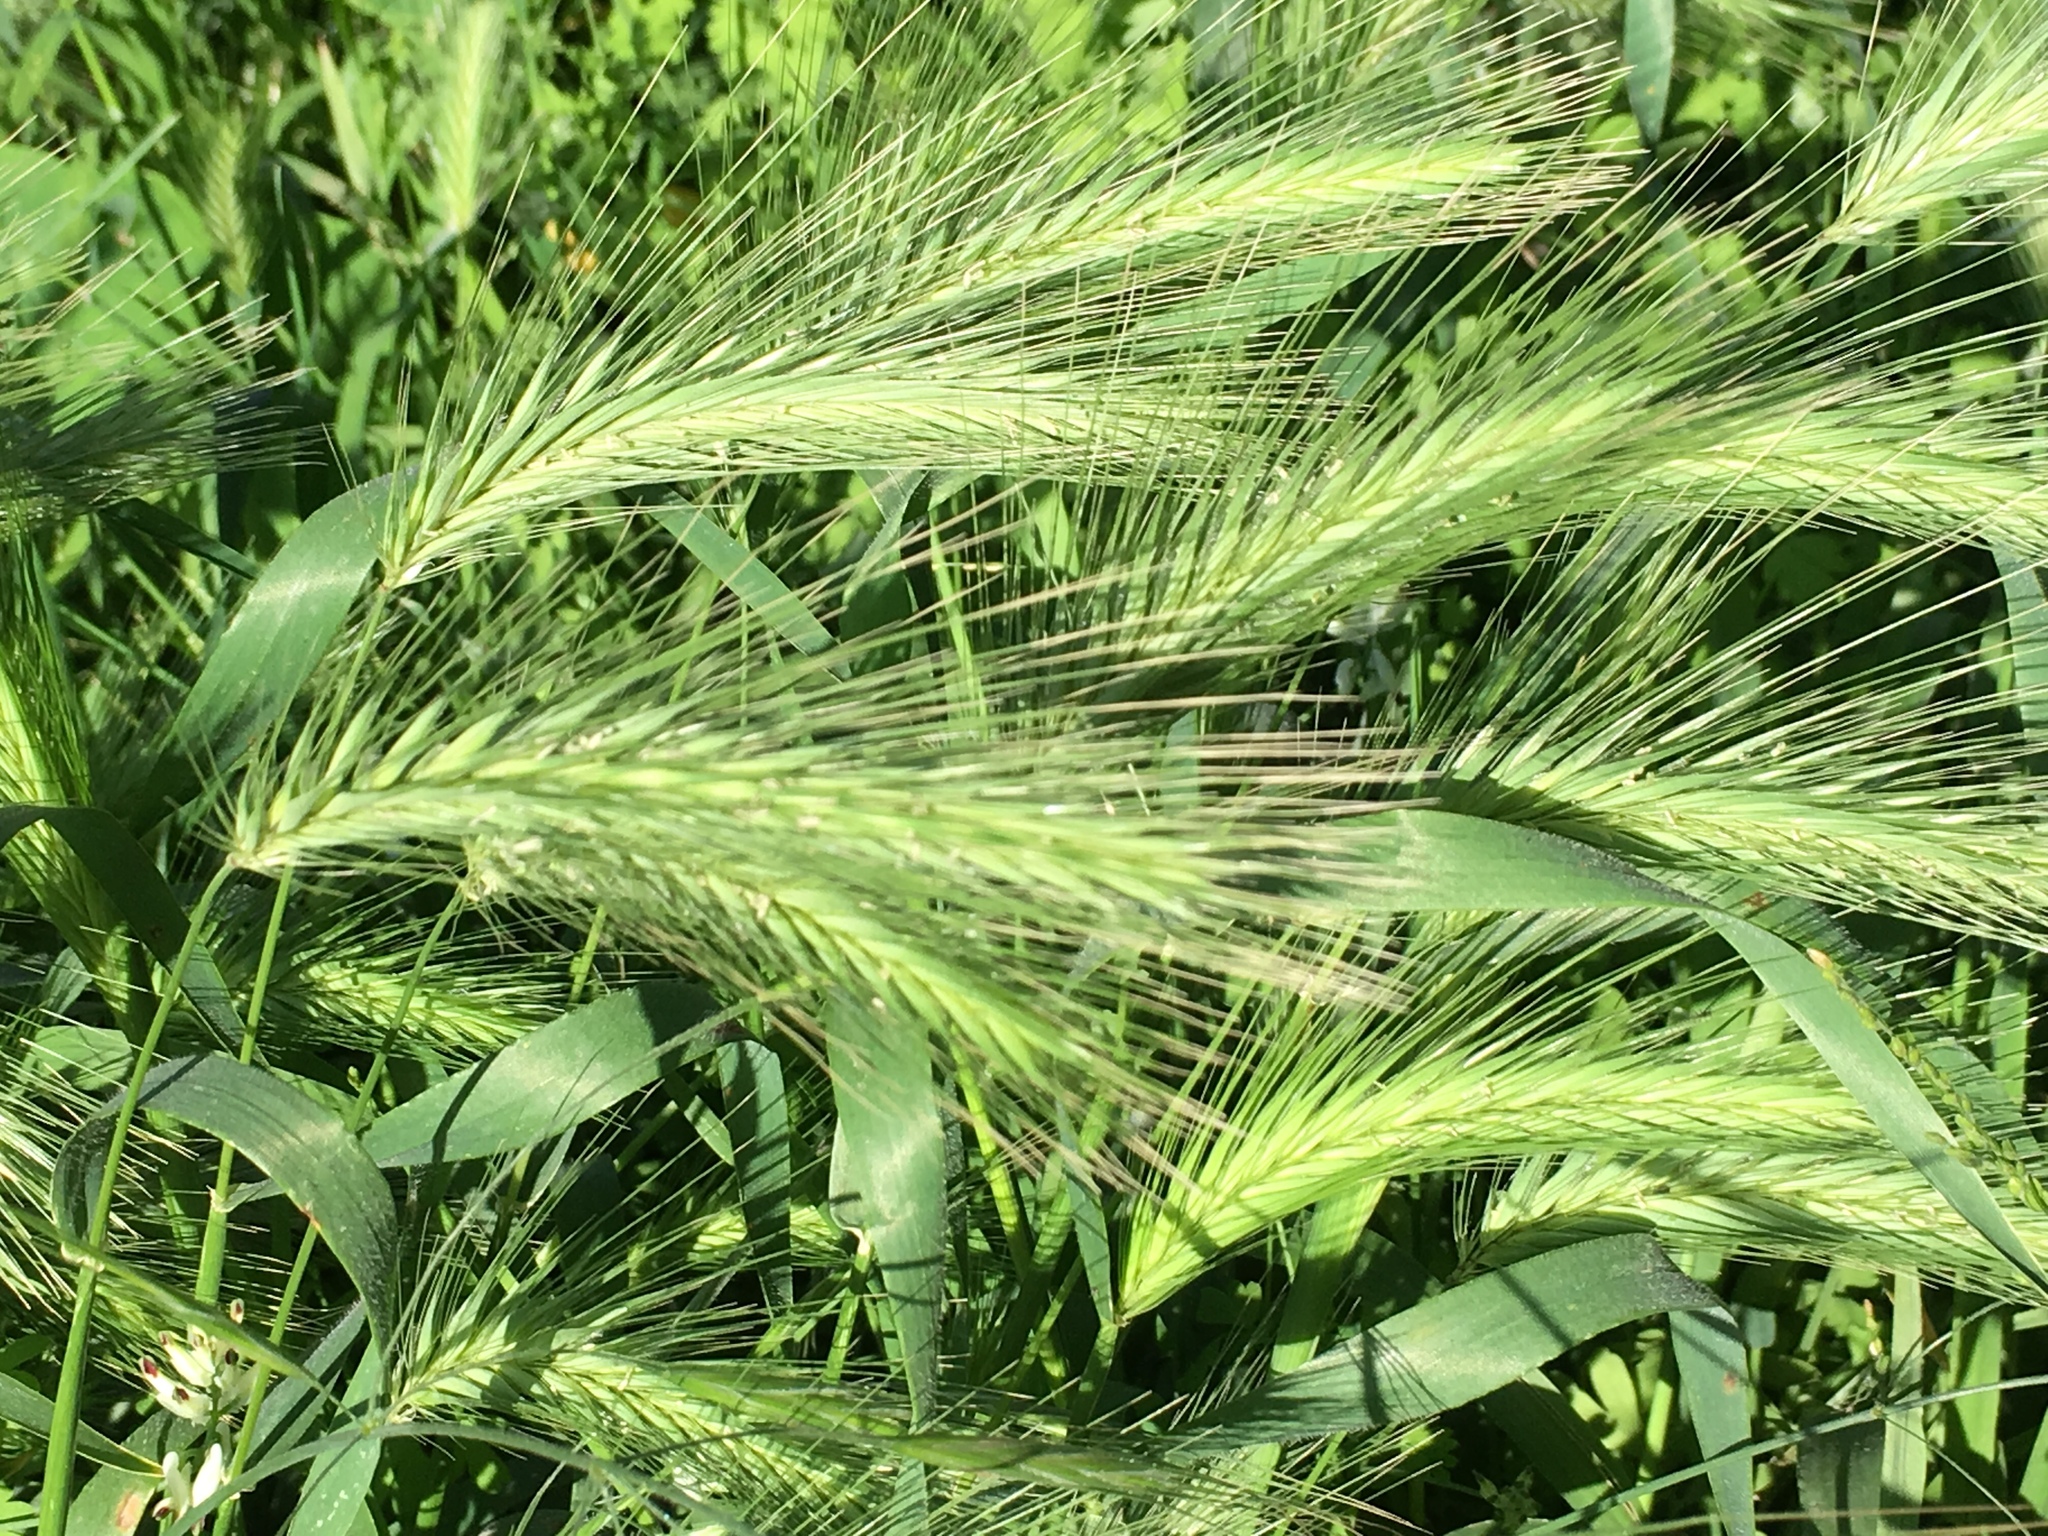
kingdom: Plantae
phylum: Tracheophyta
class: Liliopsida
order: Poales
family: Poaceae
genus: Hordeum
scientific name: Hordeum murinum
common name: Wall barley
